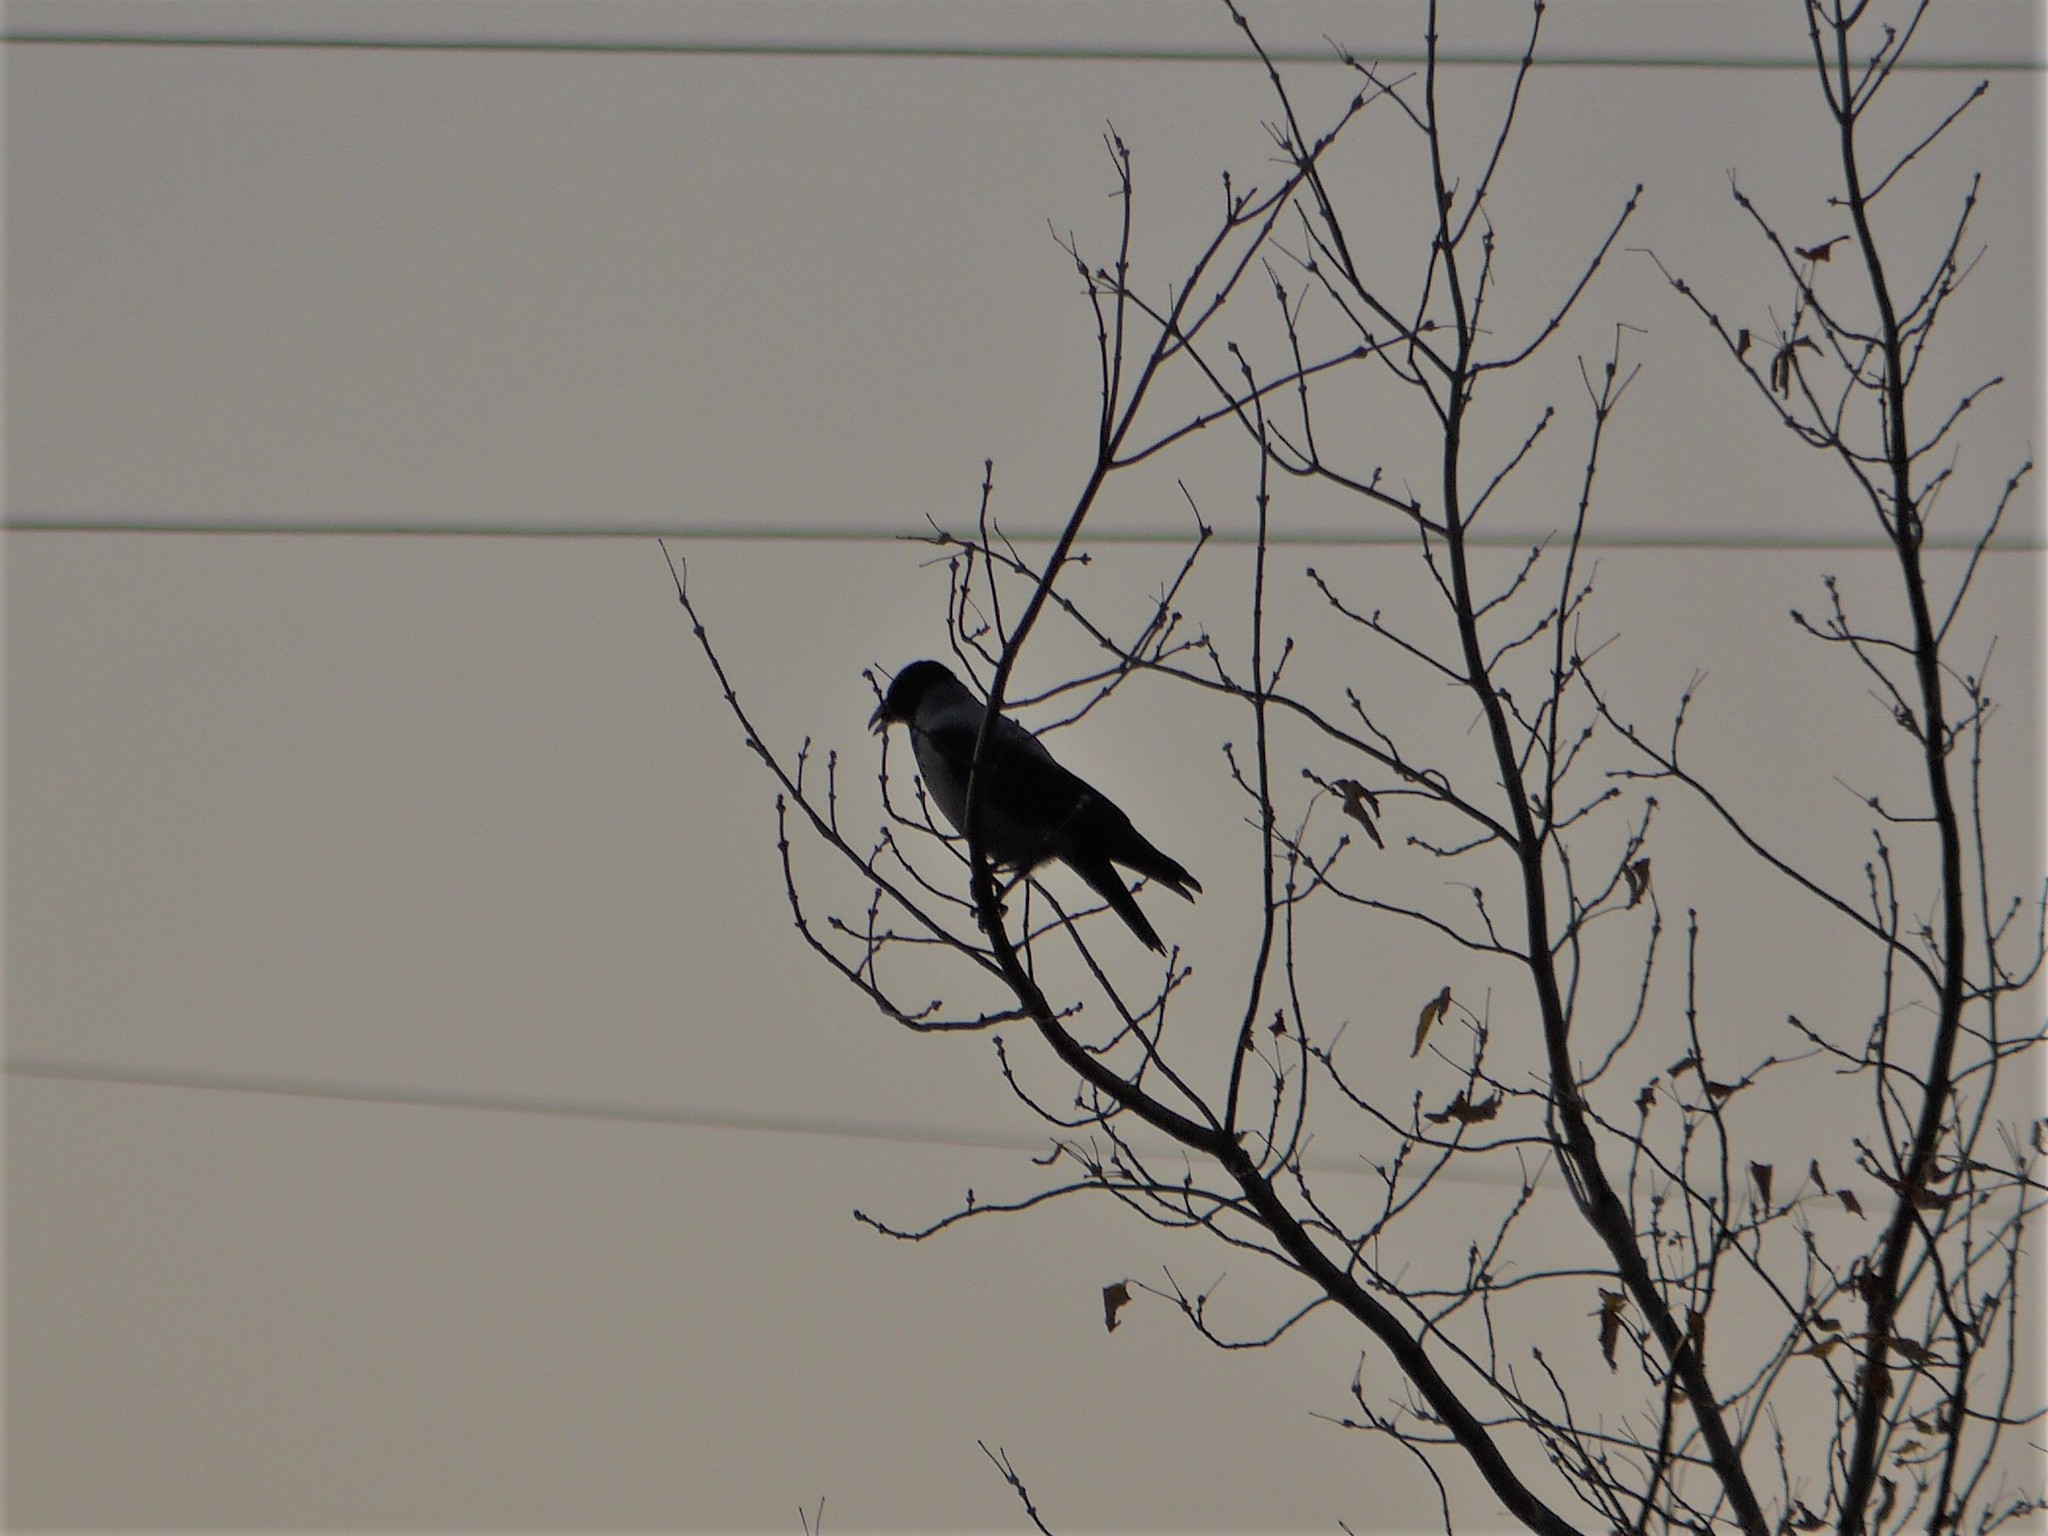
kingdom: Animalia
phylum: Chordata
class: Aves
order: Passeriformes
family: Corvidae
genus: Corvus
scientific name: Corvus cornix
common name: Hooded crow
